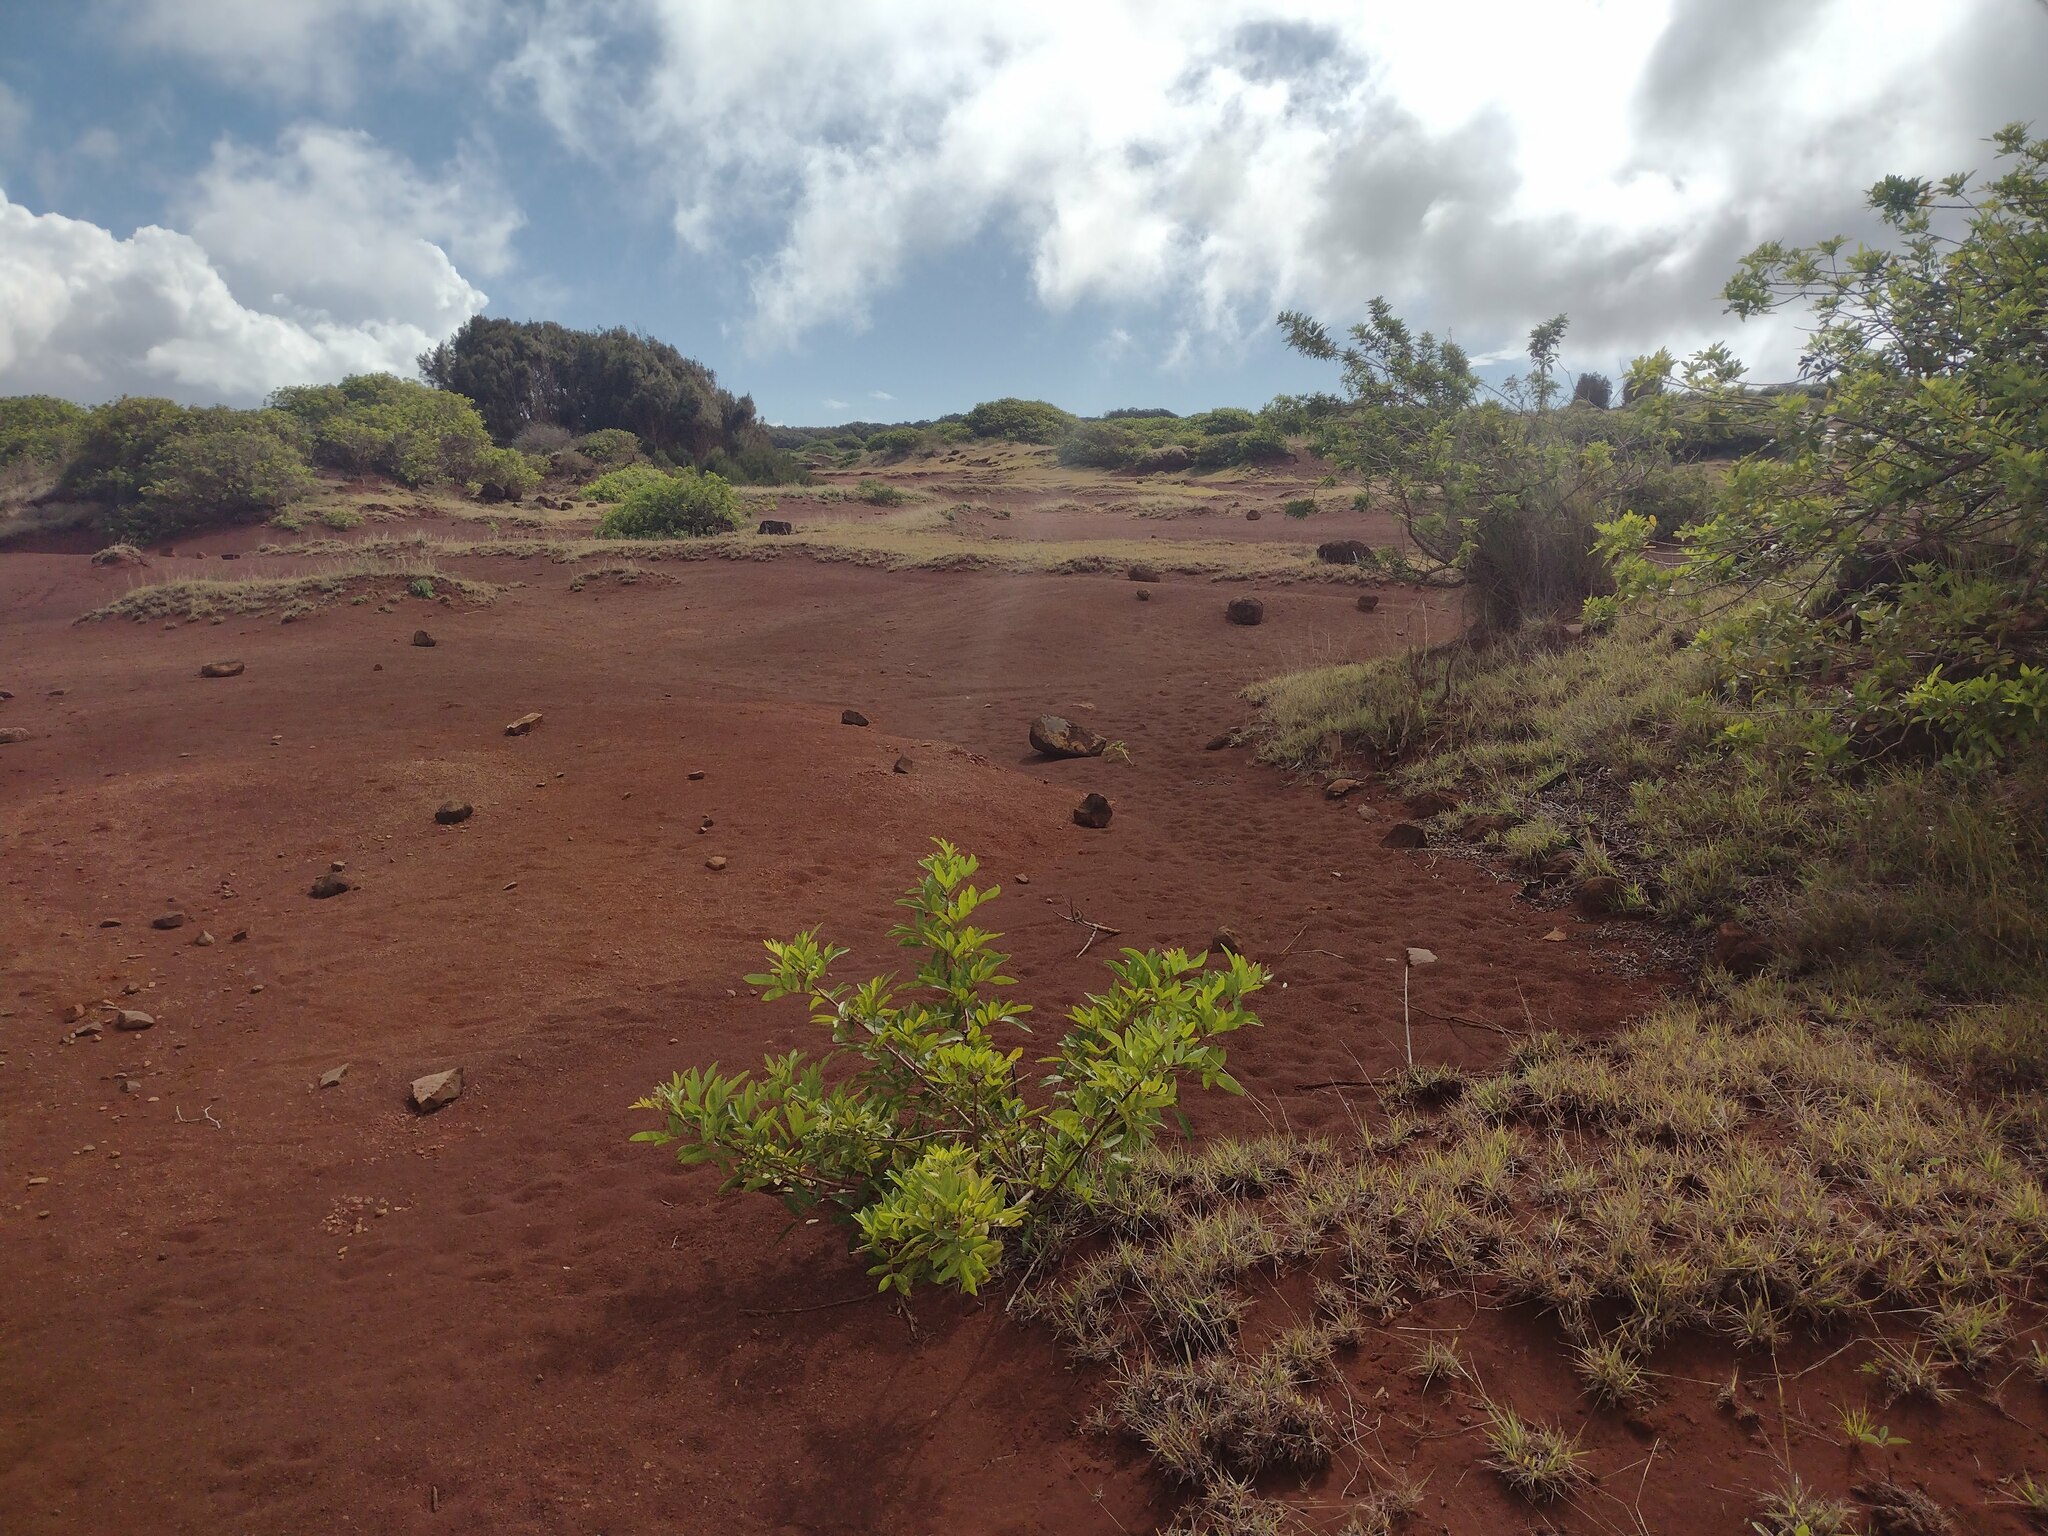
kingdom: Plantae
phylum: Tracheophyta
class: Magnoliopsida
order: Sapindales
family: Anacardiaceae
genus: Schinus
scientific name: Schinus terebinthifolia
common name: Brazilian peppertree
